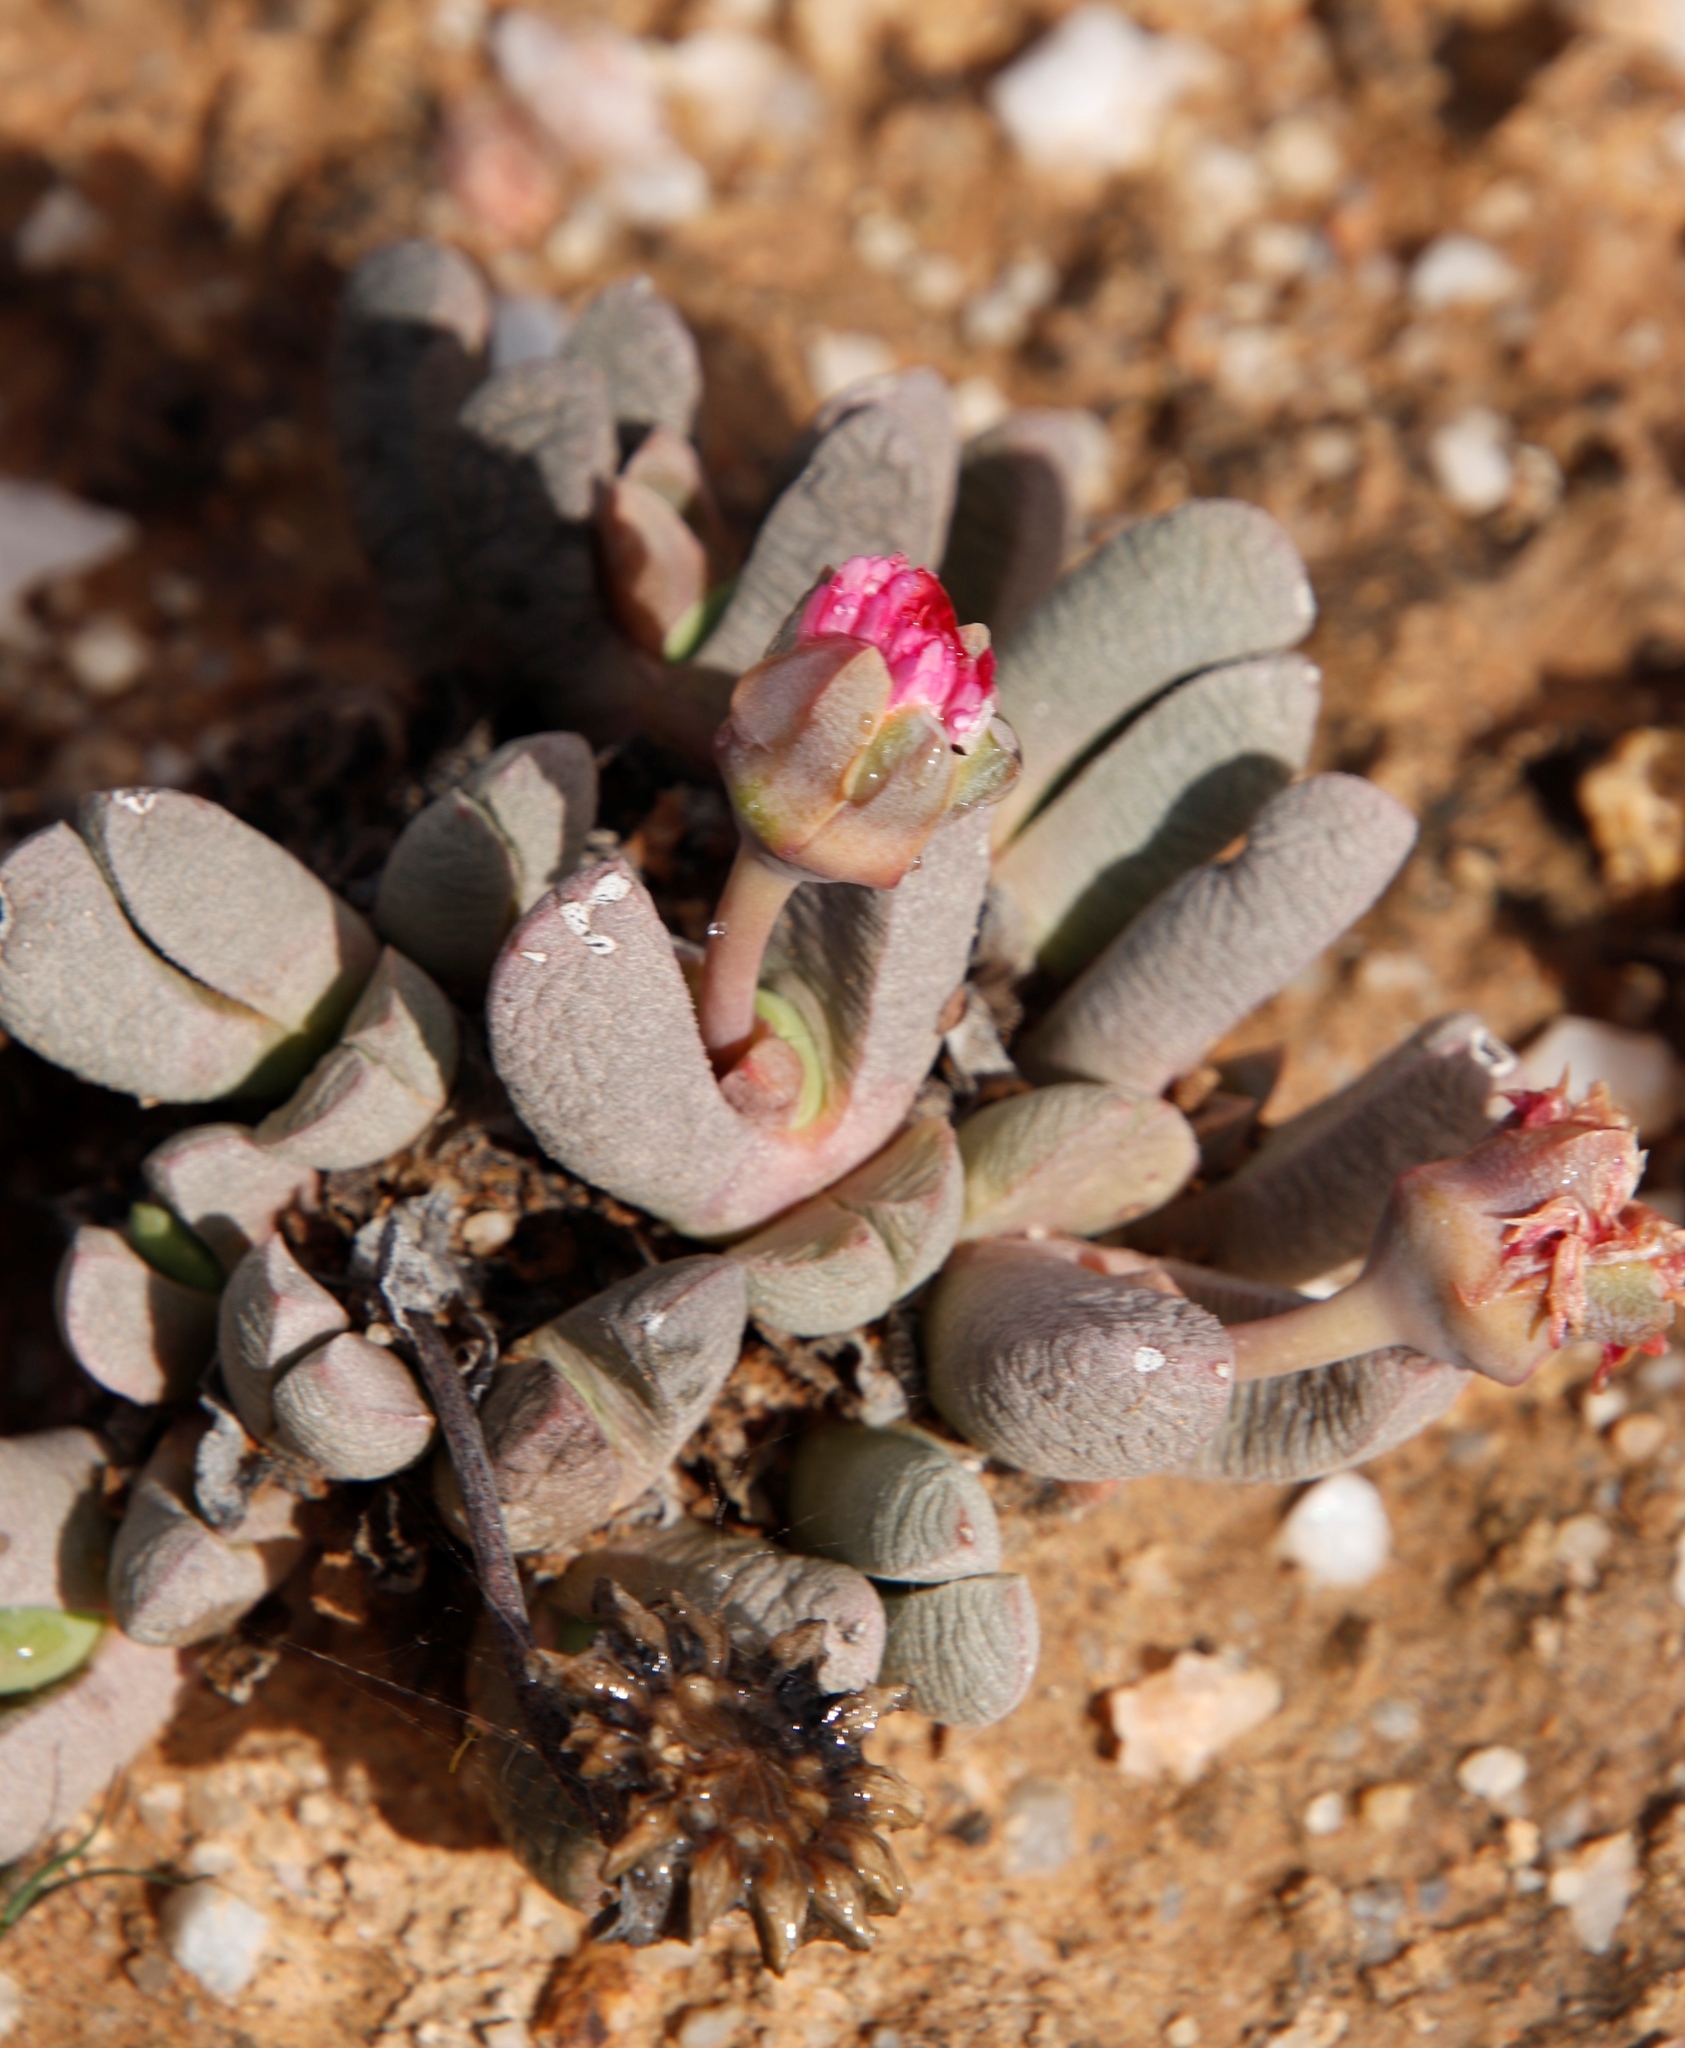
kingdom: Plantae
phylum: Tracheophyta
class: Magnoliopsida
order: Caryophyllales
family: Aizoaceae
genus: Cephalophyllum
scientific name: Cephalophyllum spissum
